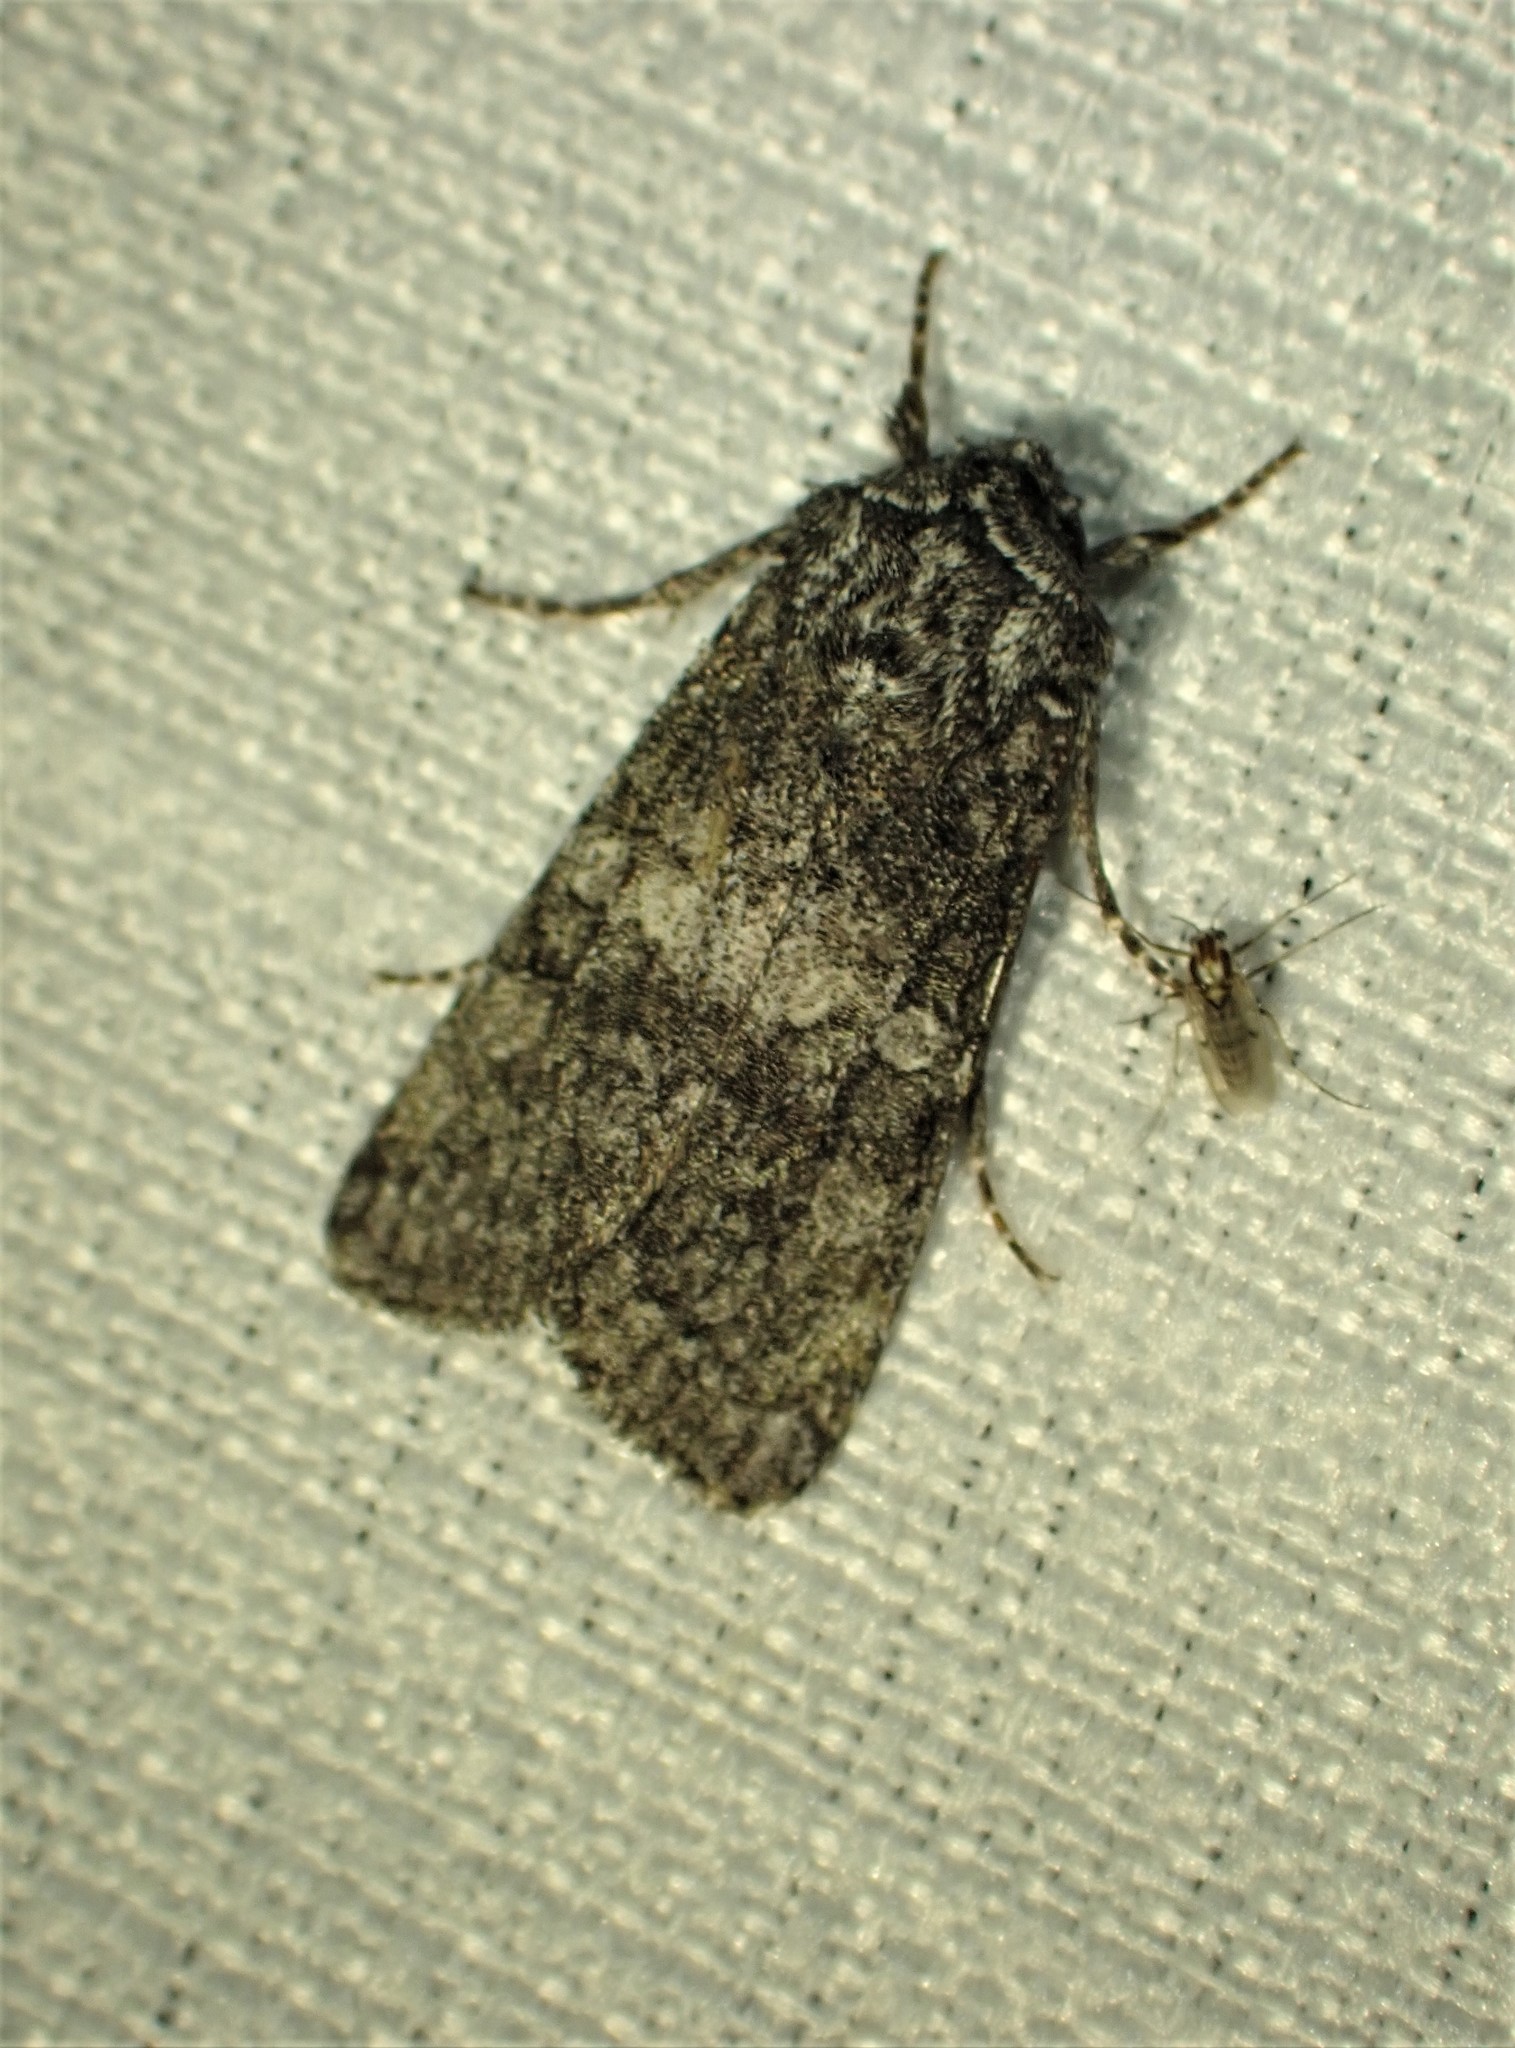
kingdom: Animalia
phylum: Arthropoda
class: Insecta
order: Lepidoptera
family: Noctuidae
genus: Egira
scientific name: Egira dolosa
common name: Lined black aspen cat.
